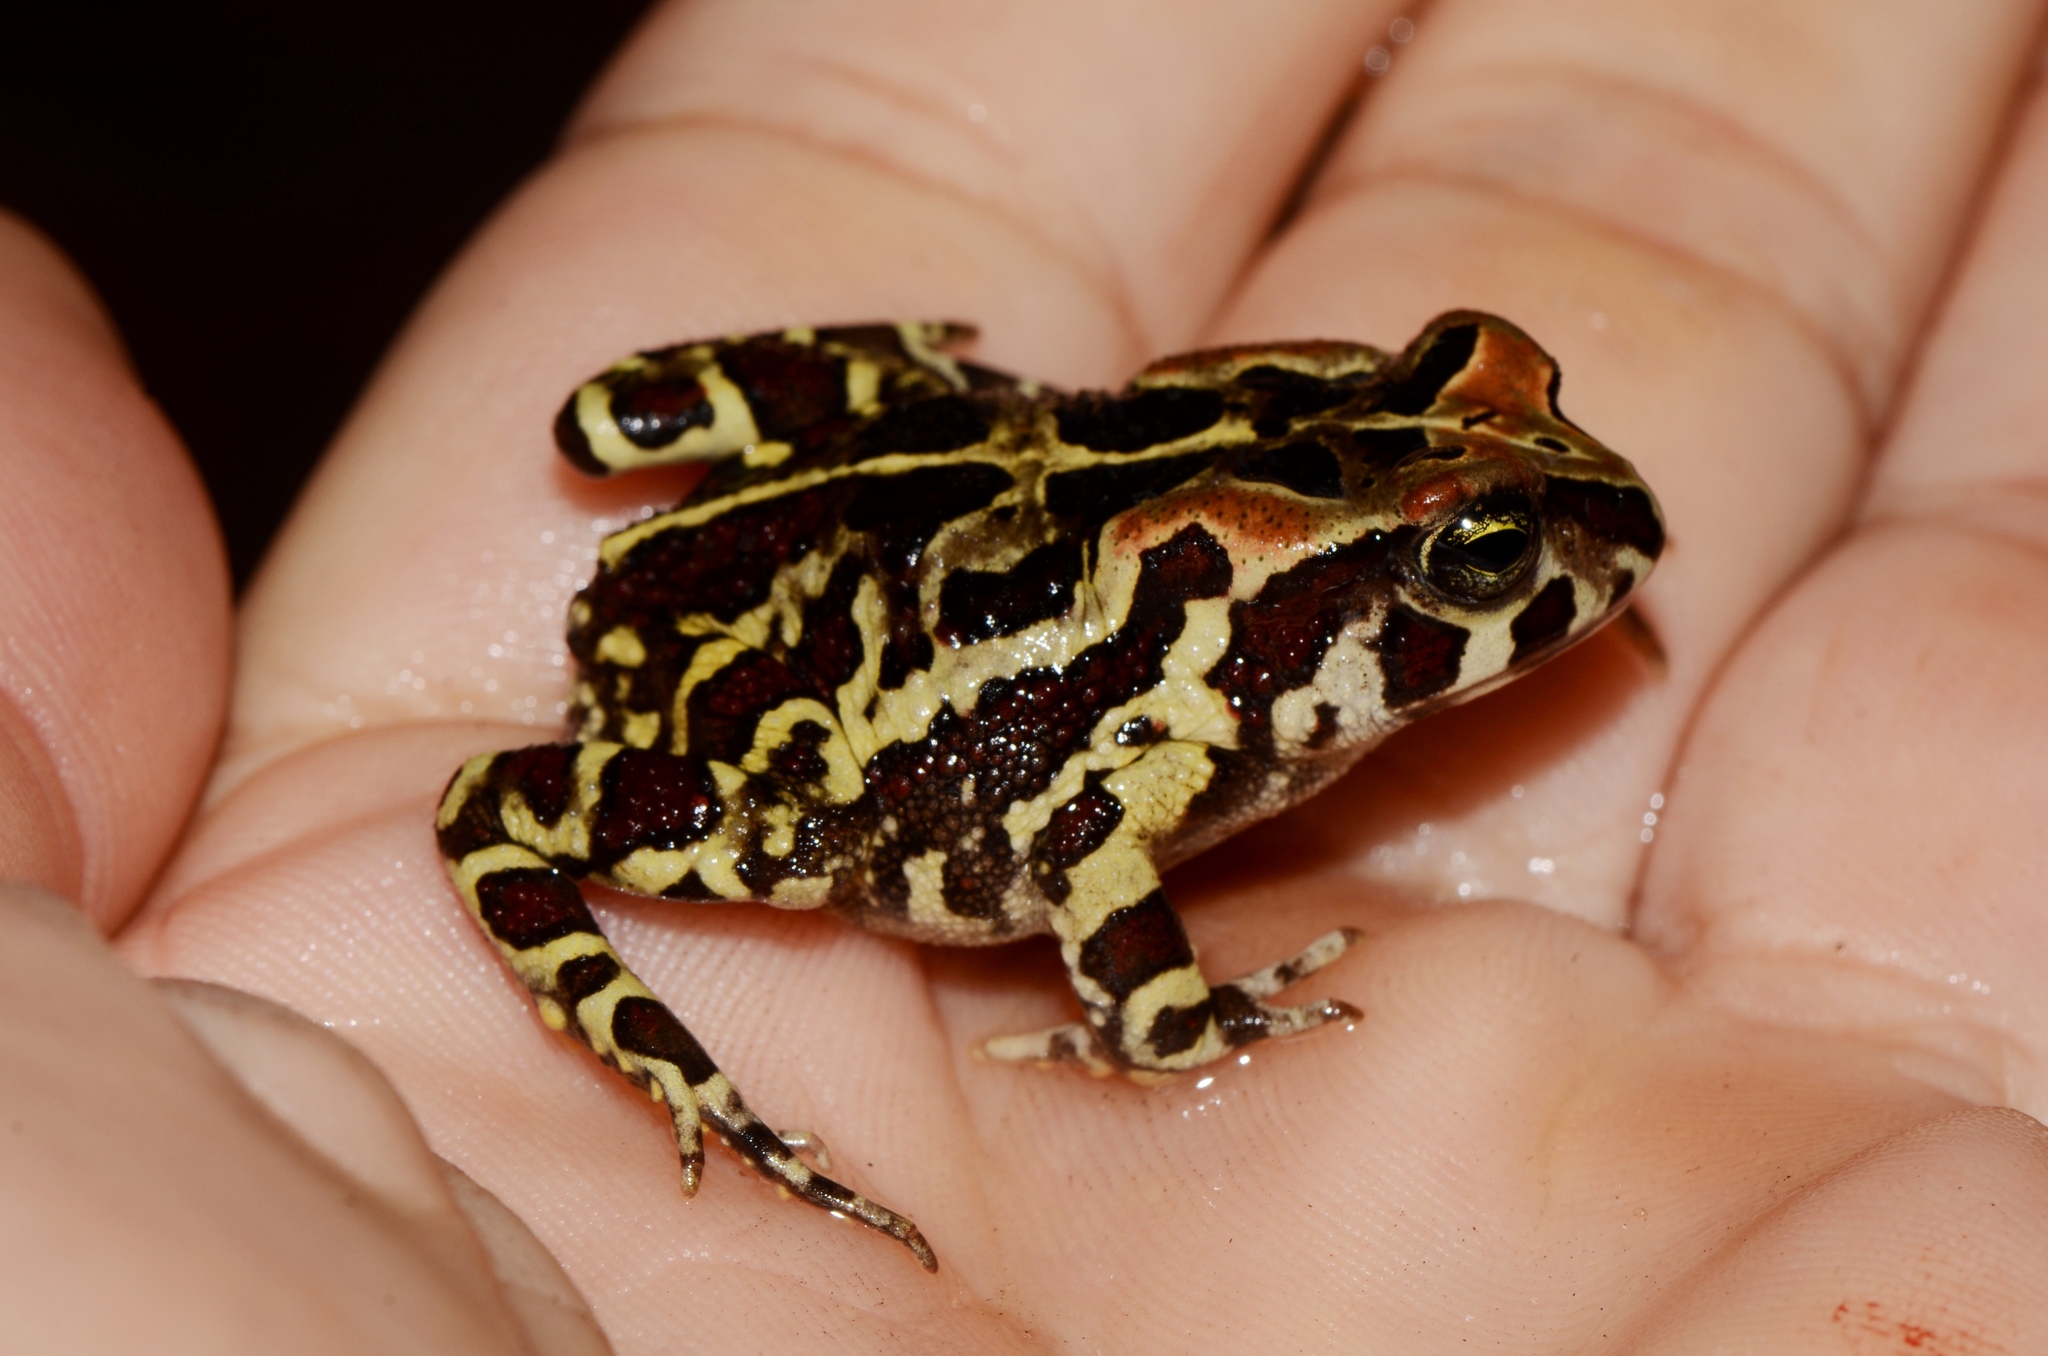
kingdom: Animalia
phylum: Chordata
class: Amphibia
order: Anura
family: Bufonidae
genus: Sclerophrys
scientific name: Sclerophrys pantherina
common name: Panther toad
